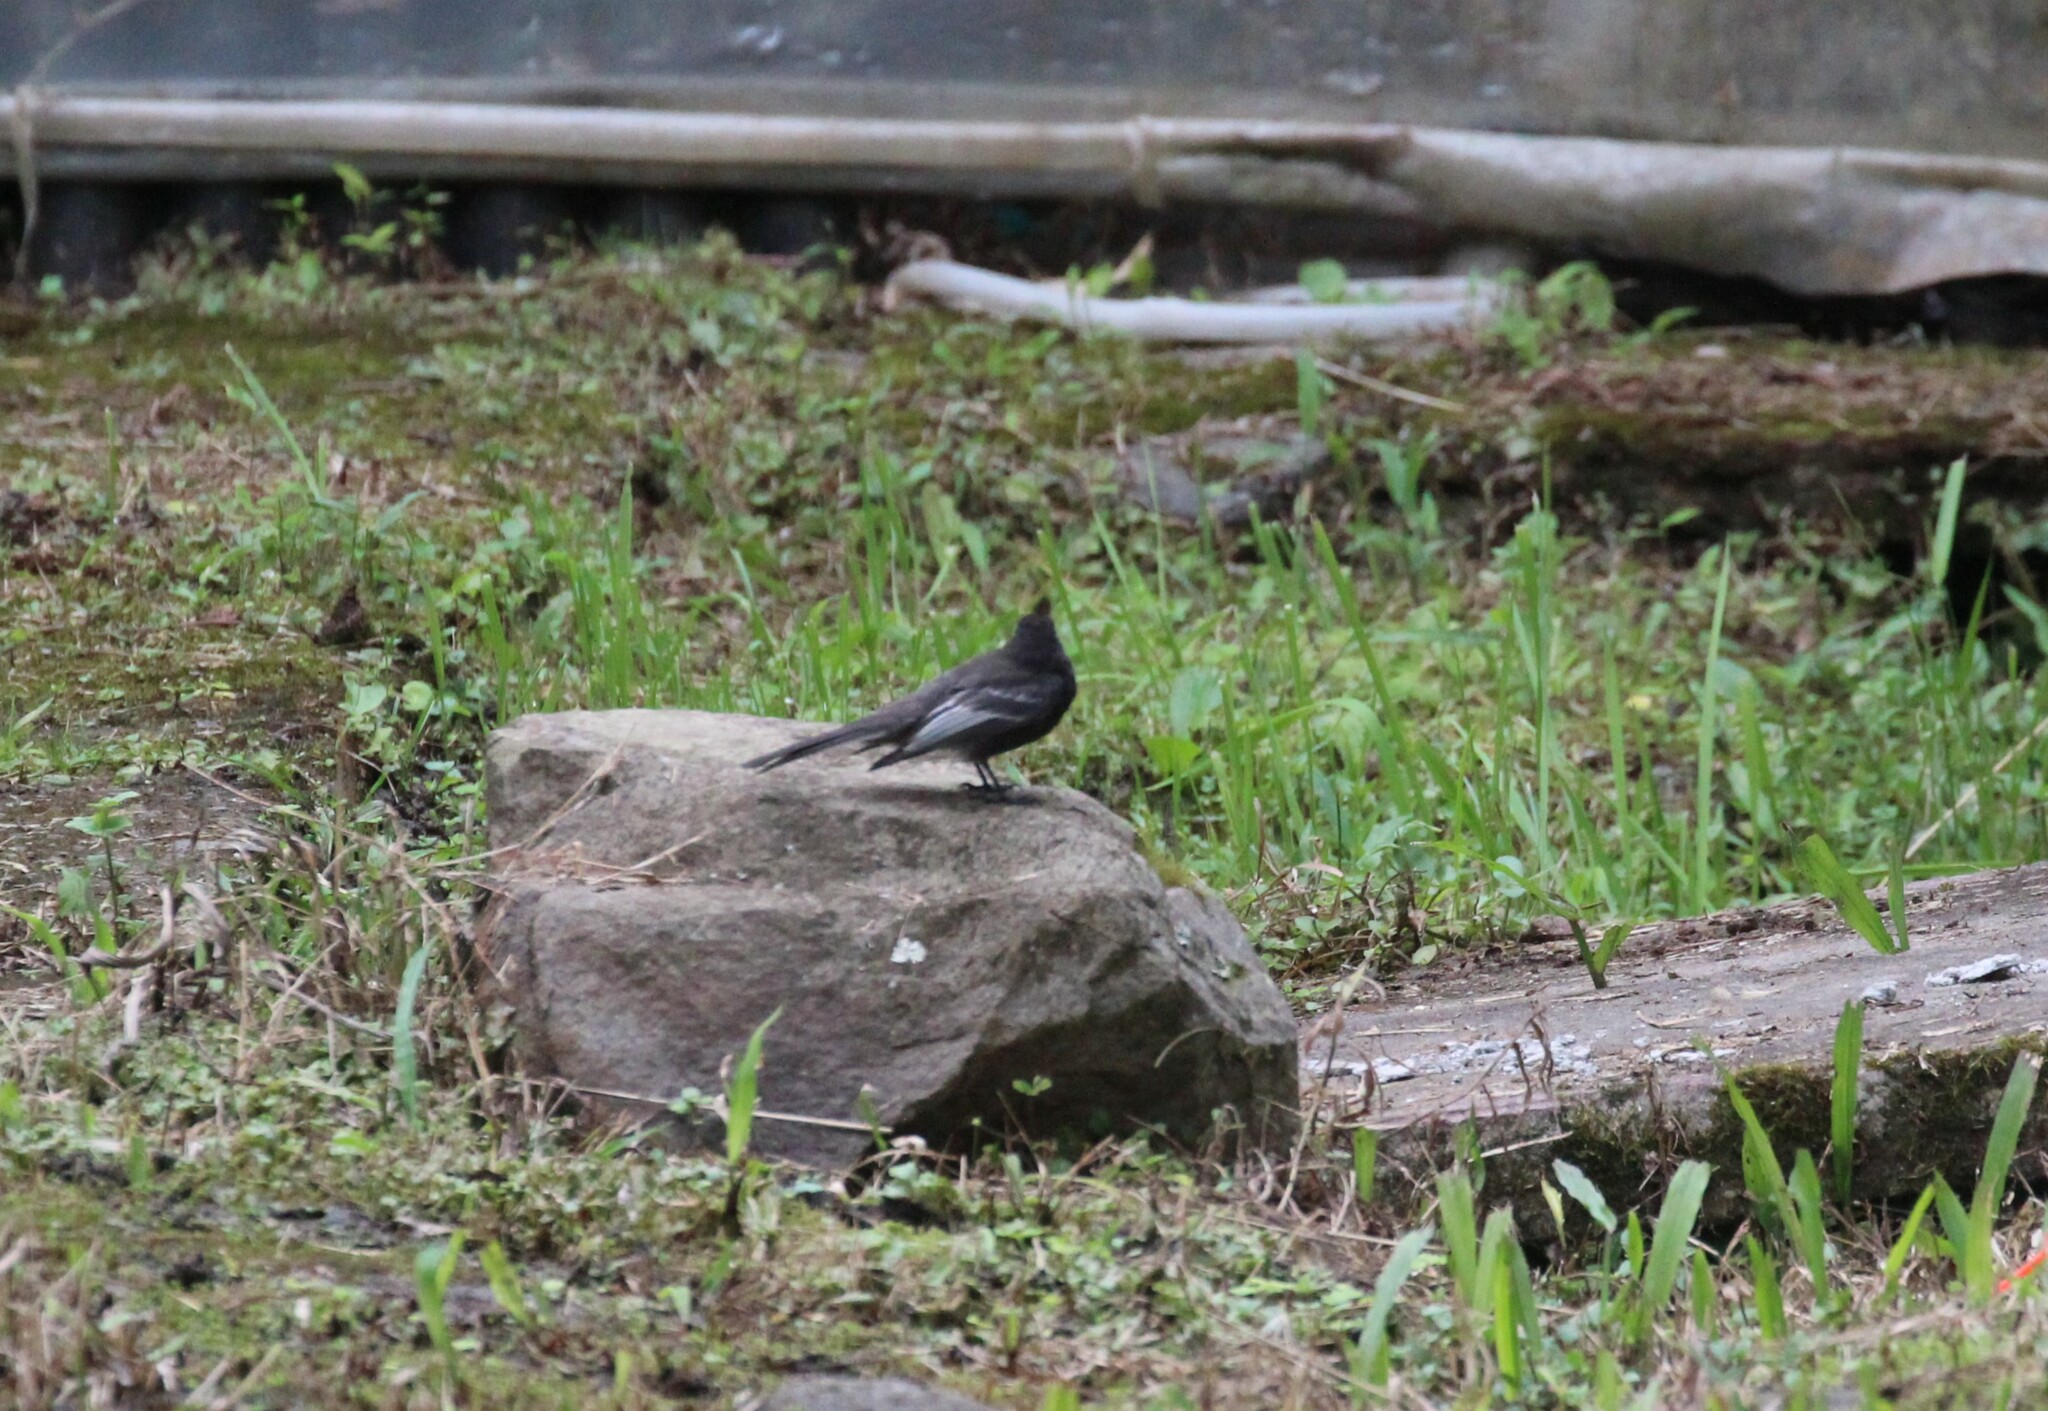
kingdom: Animalia
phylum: Chordata
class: Aves
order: Passeriformes
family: Tyrannidae
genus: Sayornis
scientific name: Sayornis nigricans
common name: Black phoebe
